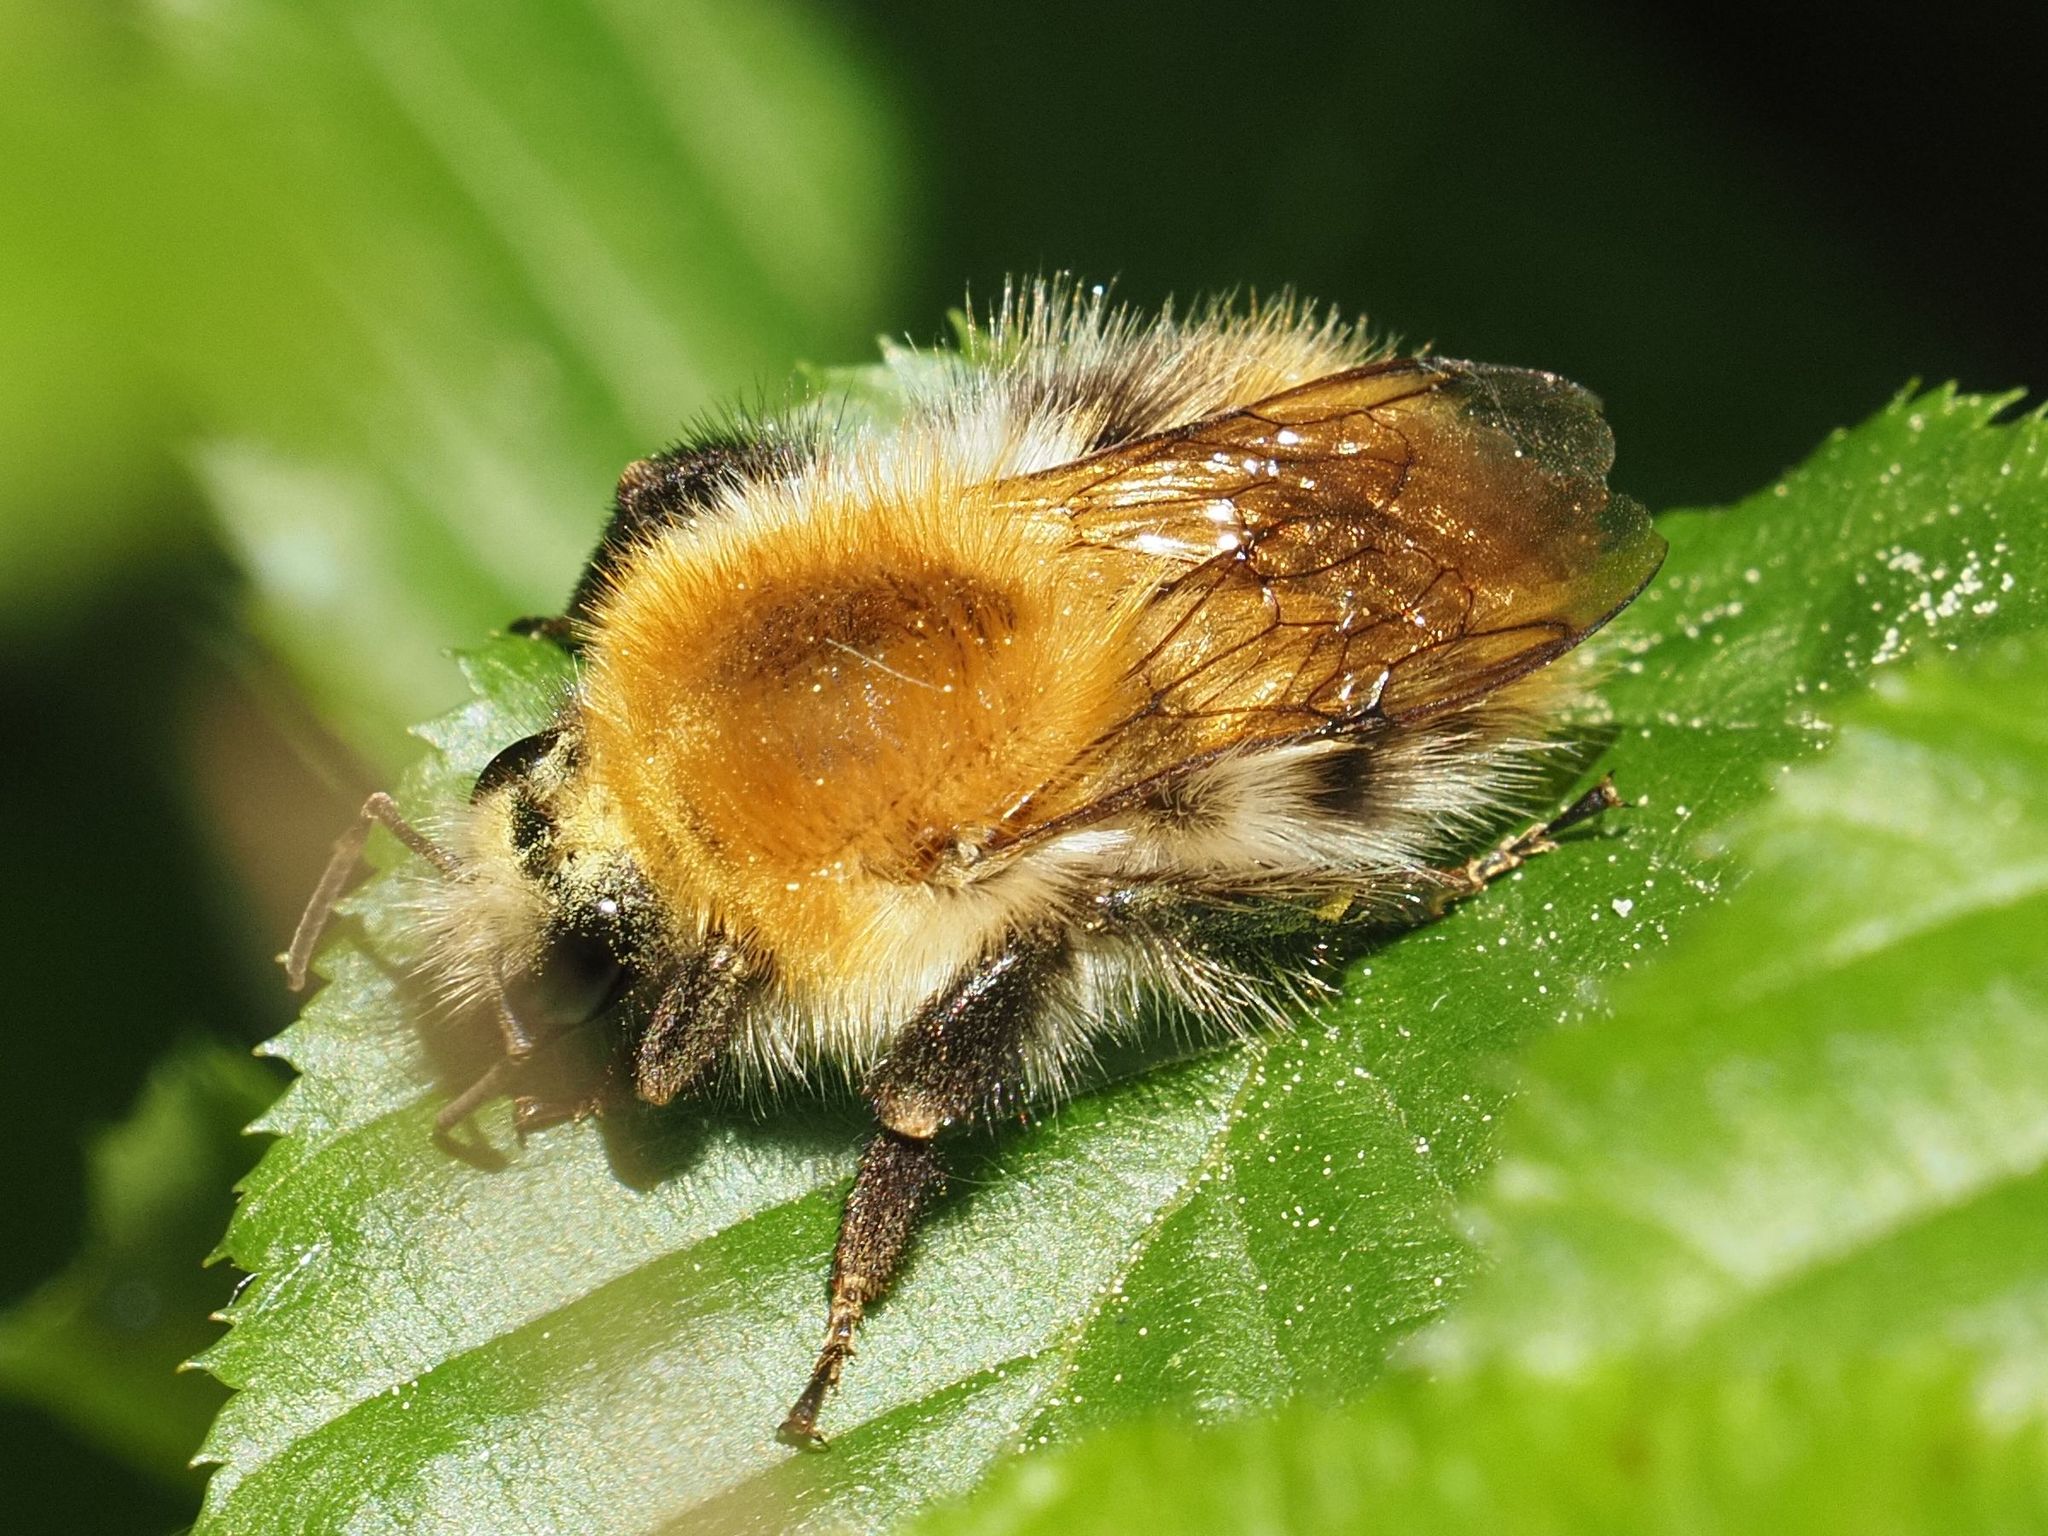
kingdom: Animalia
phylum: Arthropoda
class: Insecta
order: Hymenoptera
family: Apidae
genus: Bombus
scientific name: Bombus pascuorum
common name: Common carder bee
